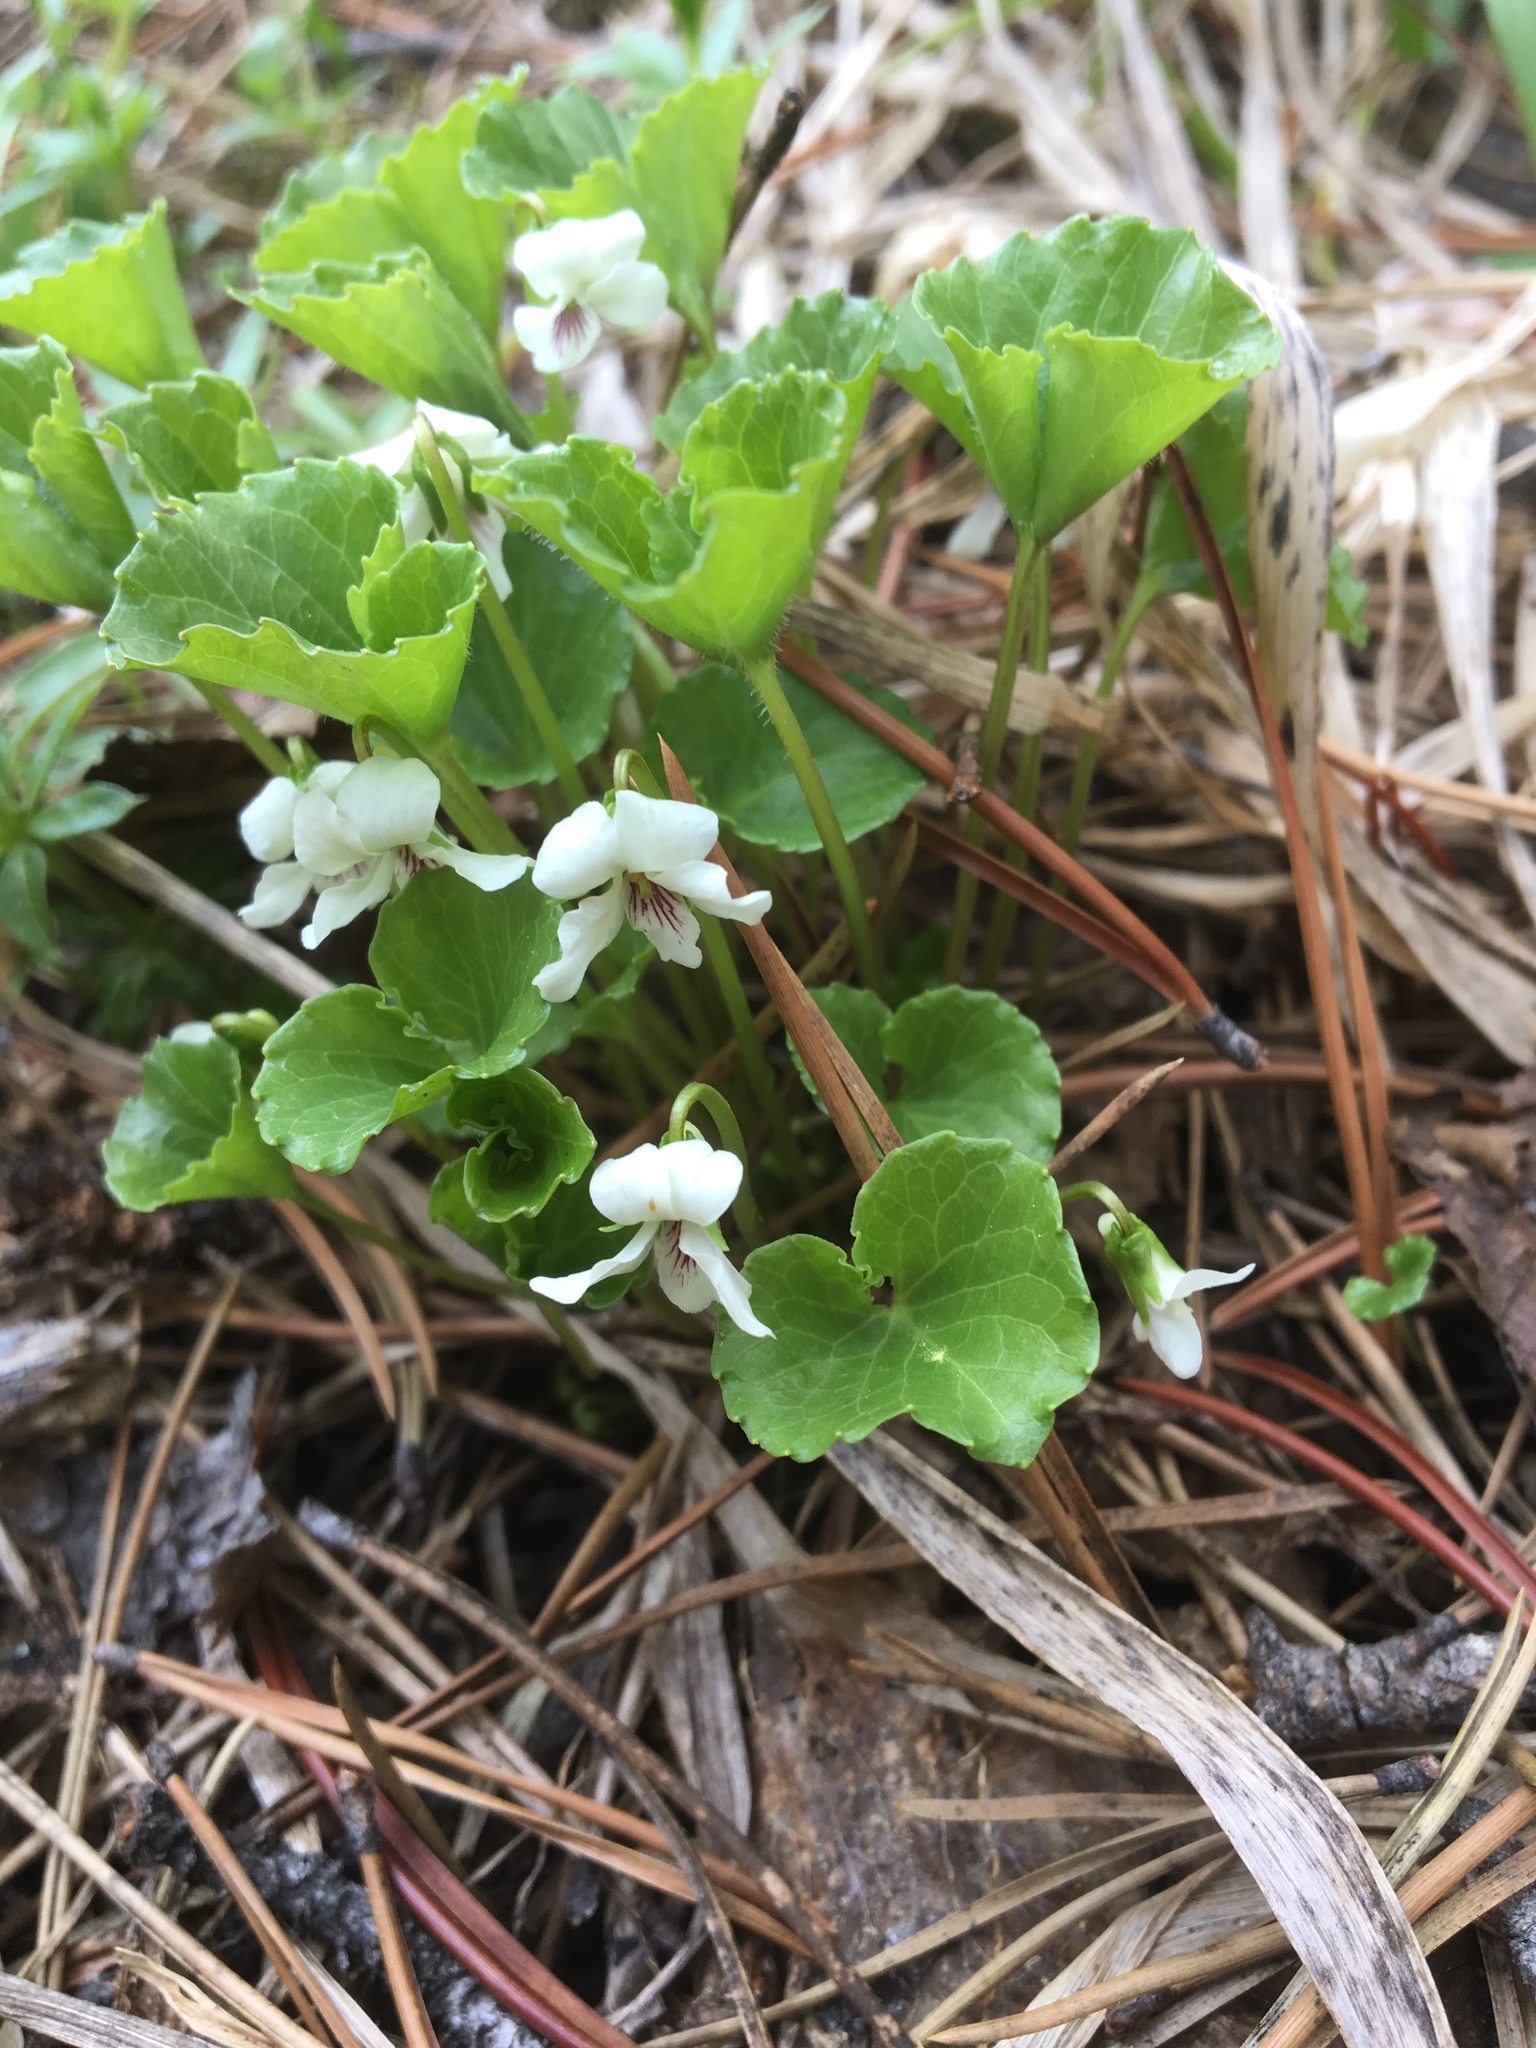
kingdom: Plantae
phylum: Tracheophyta
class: Magnoliopsida
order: Malpighiales
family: Violaceae
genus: Viola
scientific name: Viola renifolia
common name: Kidney-leaf violet
